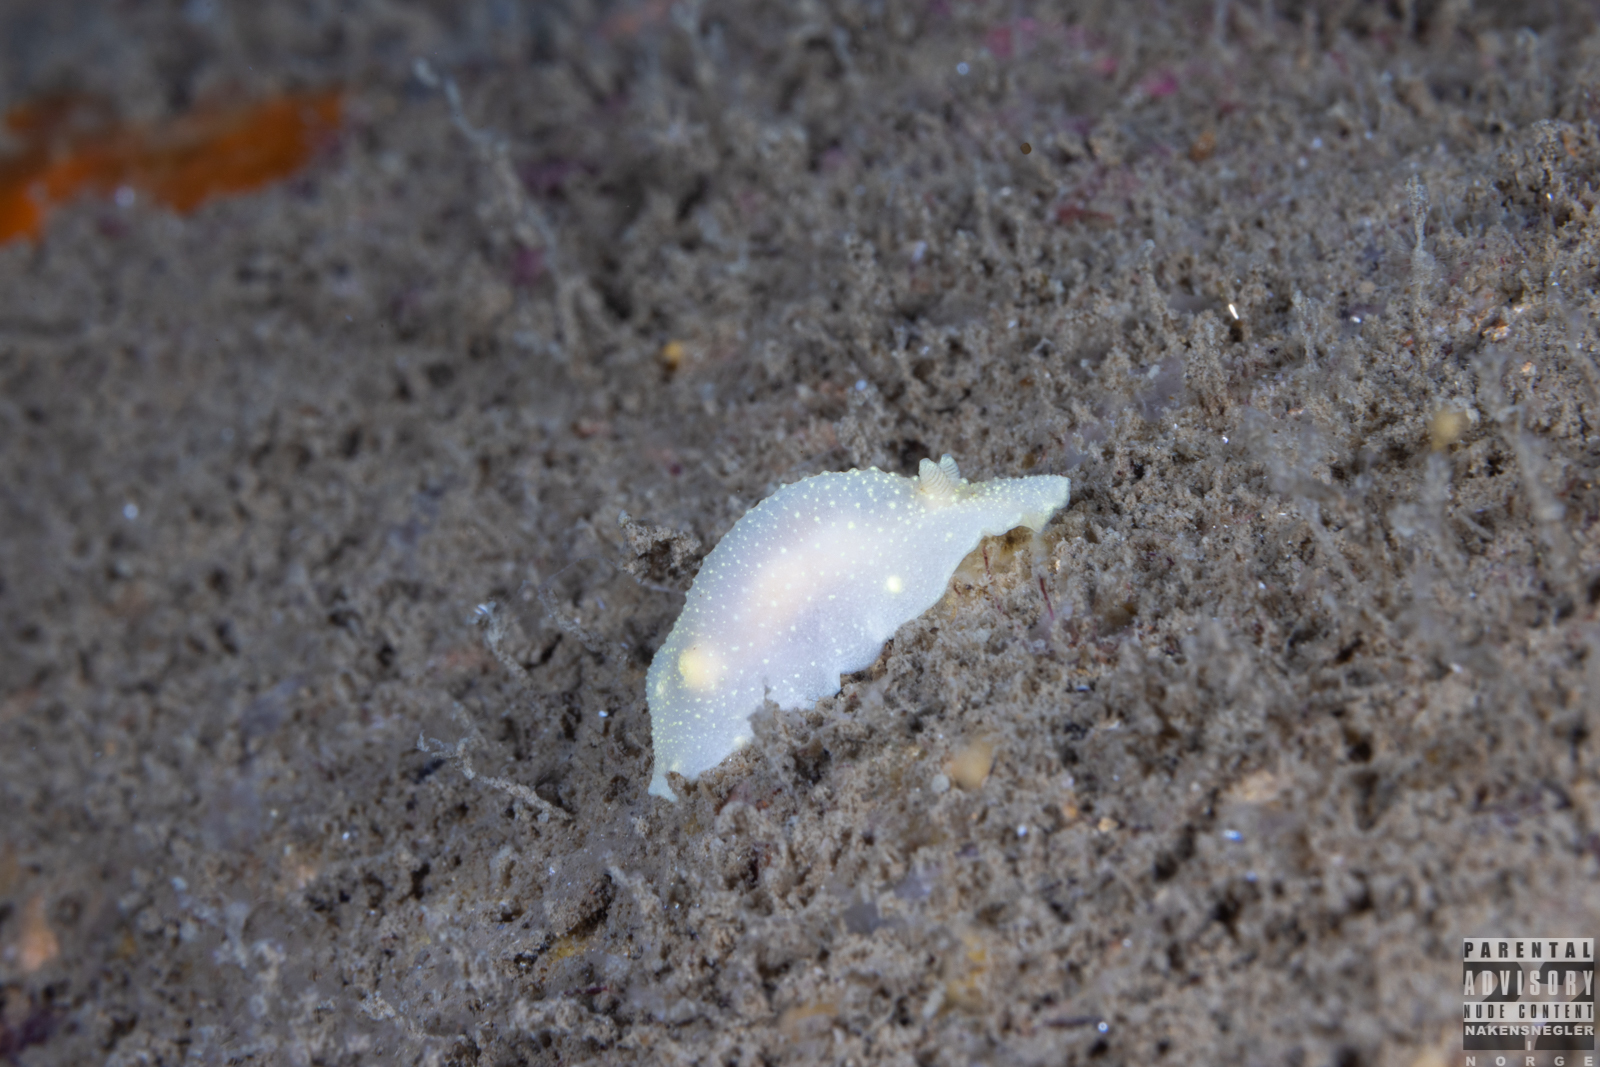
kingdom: Animalia
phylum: Mollusca
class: Gastropoda
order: Nudibranchia
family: Cadlinidae
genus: Cadlina
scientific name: Cadlina laevis
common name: White atlantic cadlina
